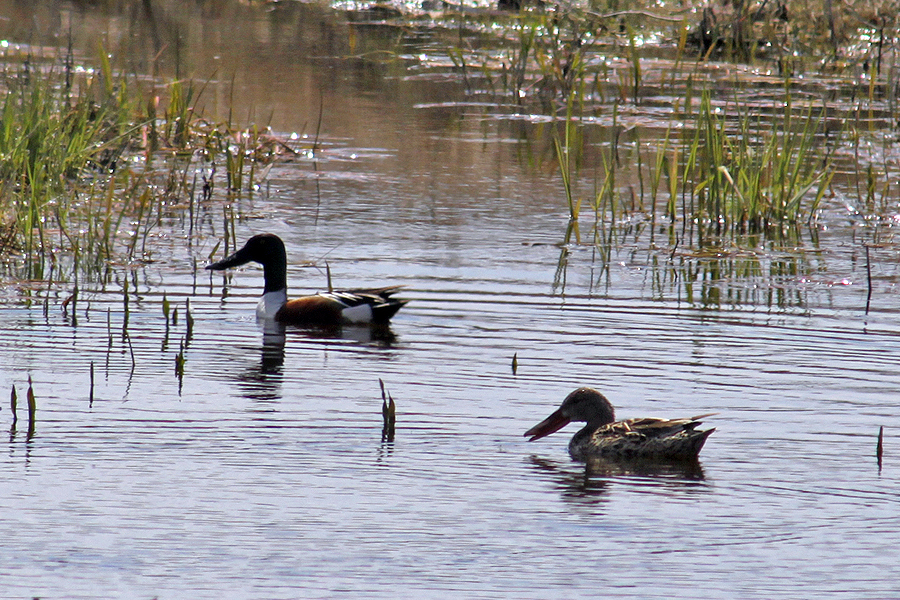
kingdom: Animalia
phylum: Chordata
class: Aves
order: Anseriformes
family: Anatidae
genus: Spatula
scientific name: Spatula clypeata
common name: Northern shoveler
